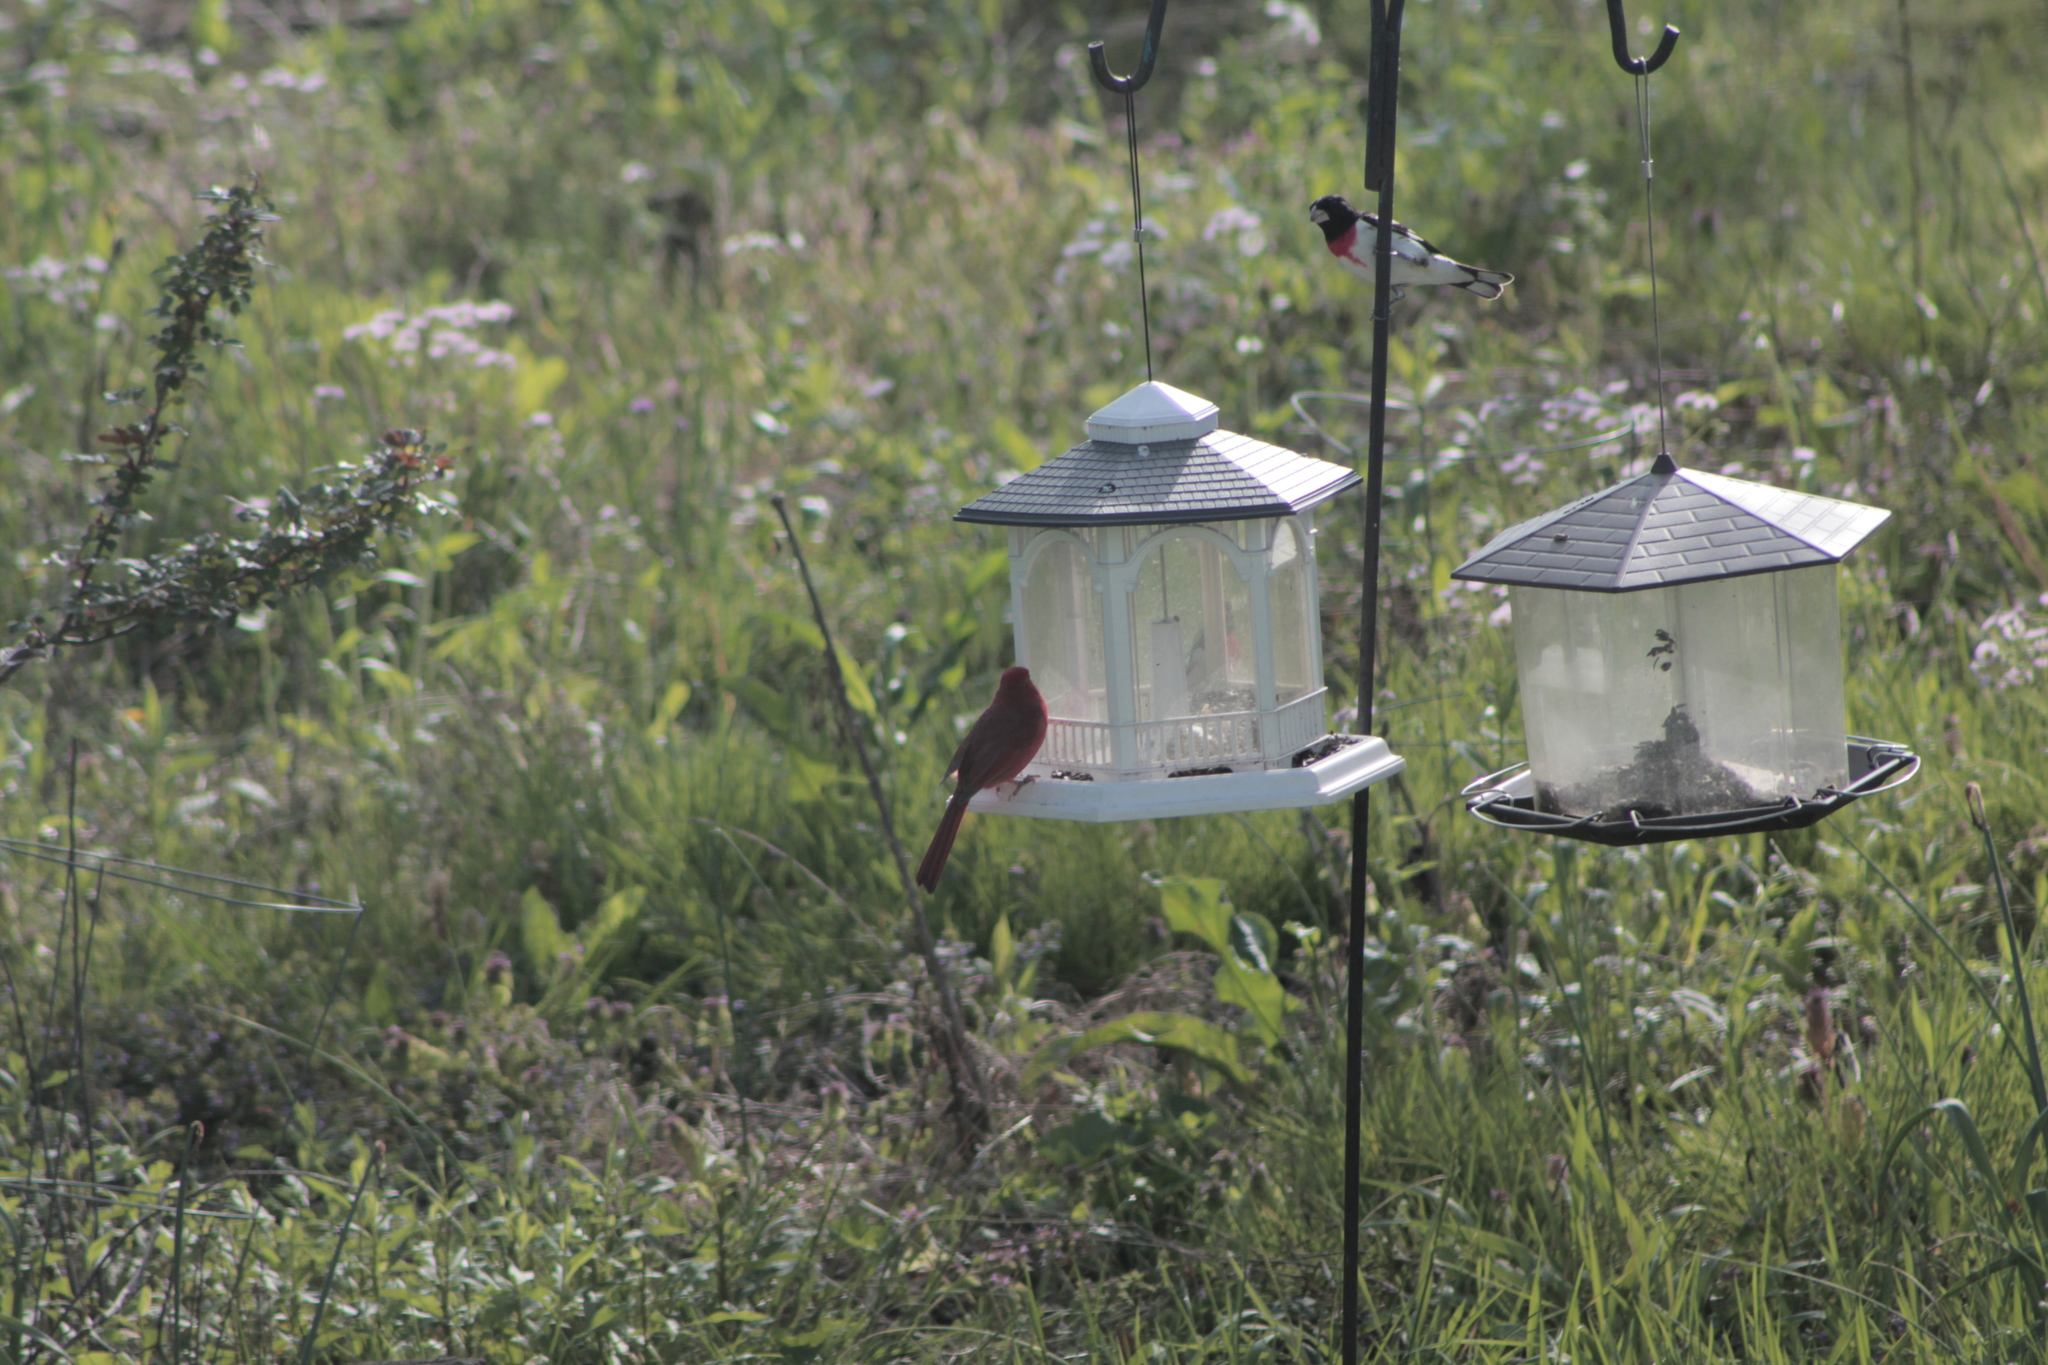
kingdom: Animalia
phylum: Chordata
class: Aves
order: Passeriformes
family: Cardinalidae
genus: Cardinalis
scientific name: Cardinalis cardinalis
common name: Northern cardinal
